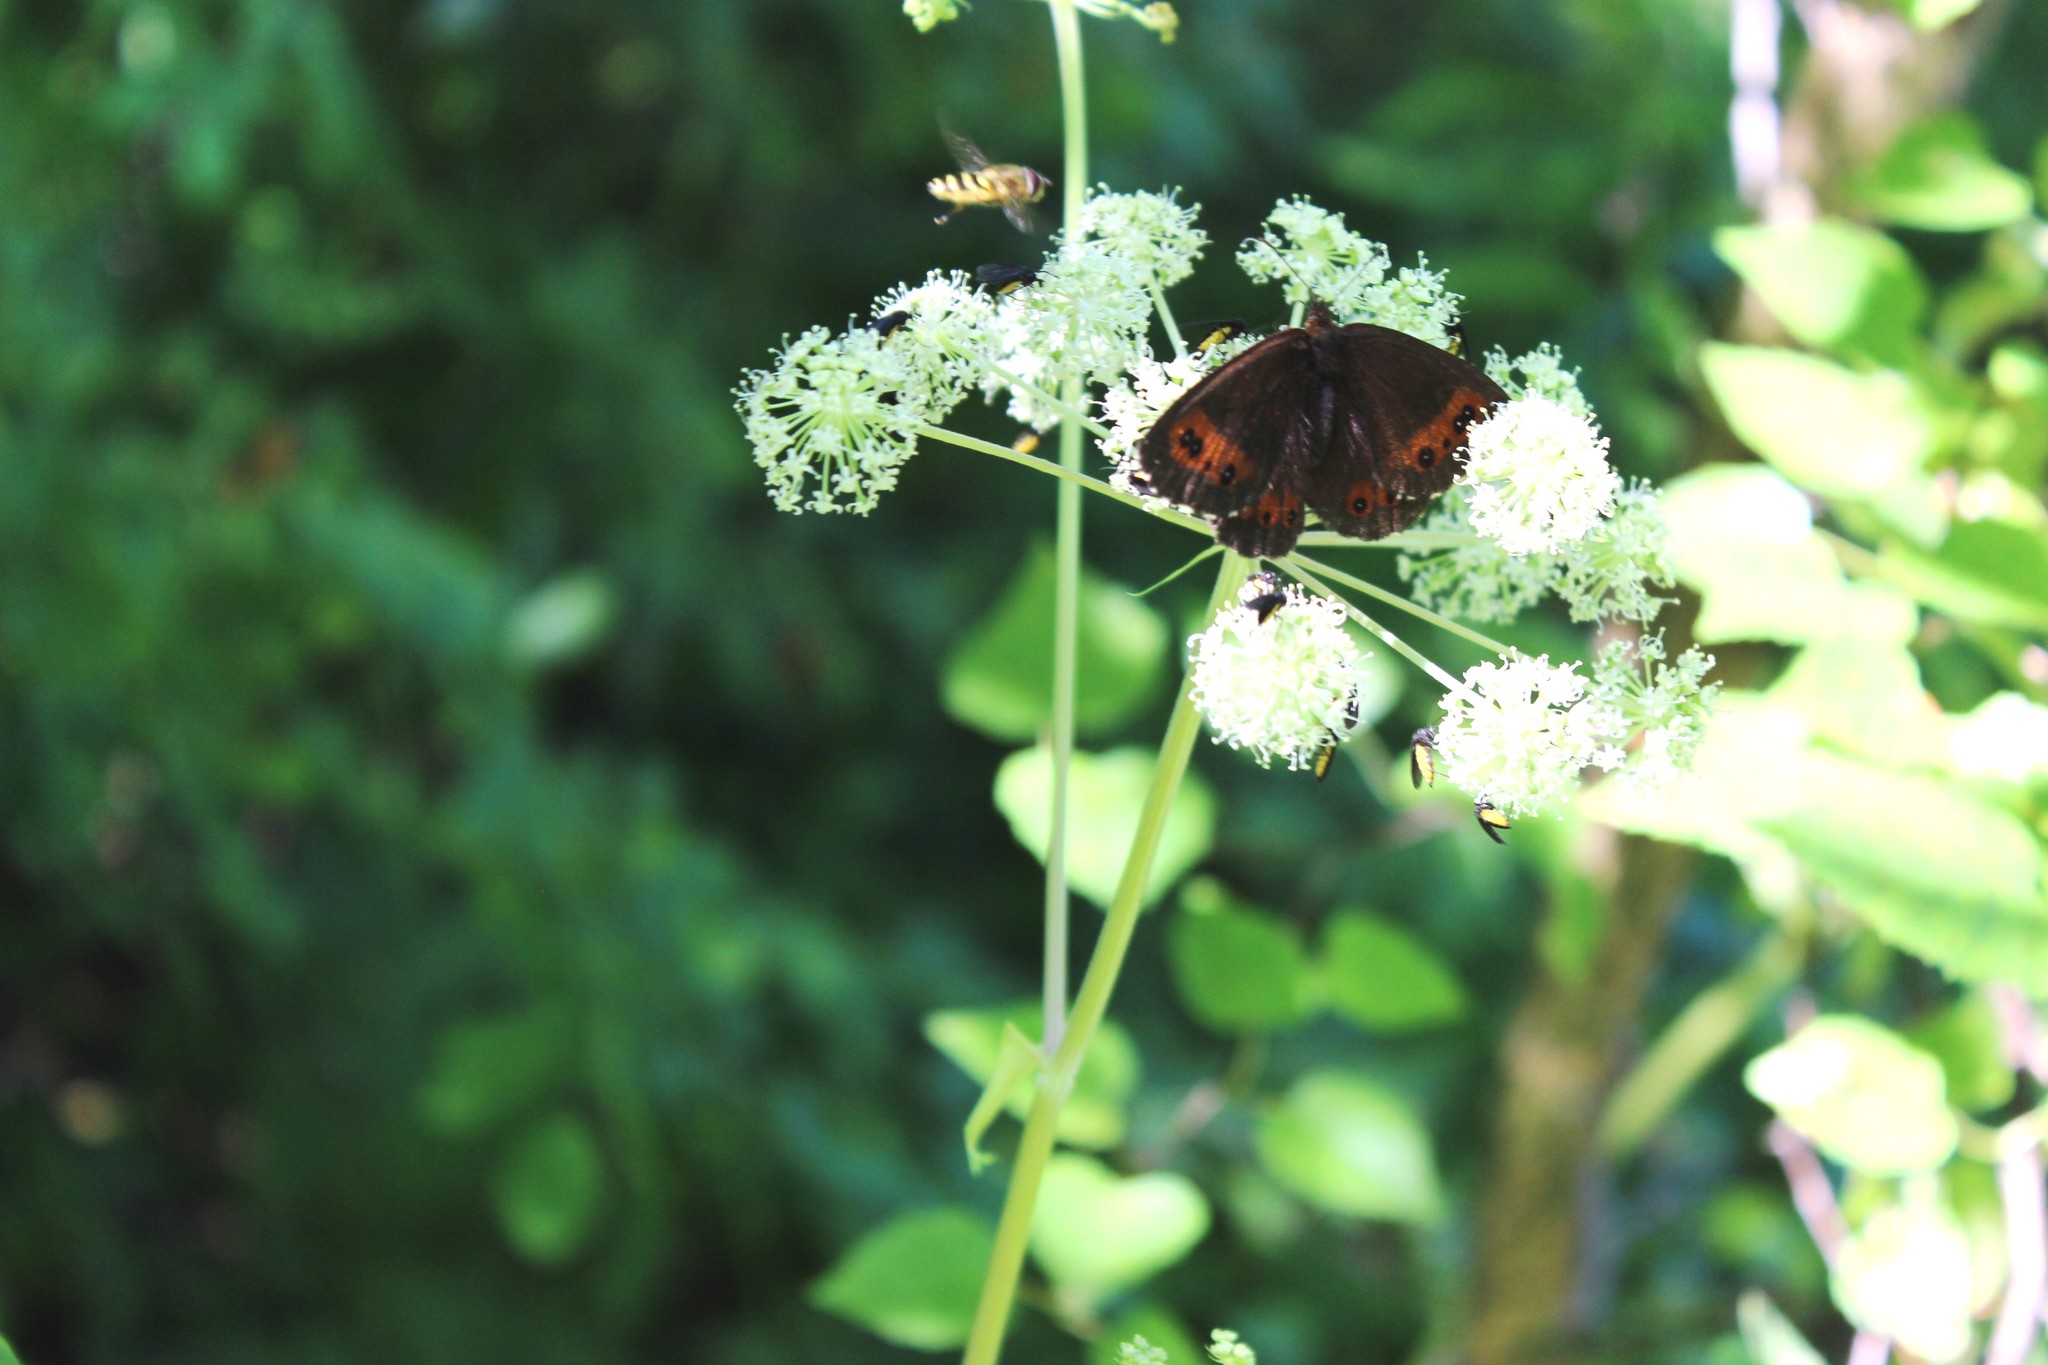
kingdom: Animalia
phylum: Arthropoda
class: Insecta
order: Lepidoptera
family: Nymphalidae
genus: Erebia
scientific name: Erebia ligea
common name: Arran brown
